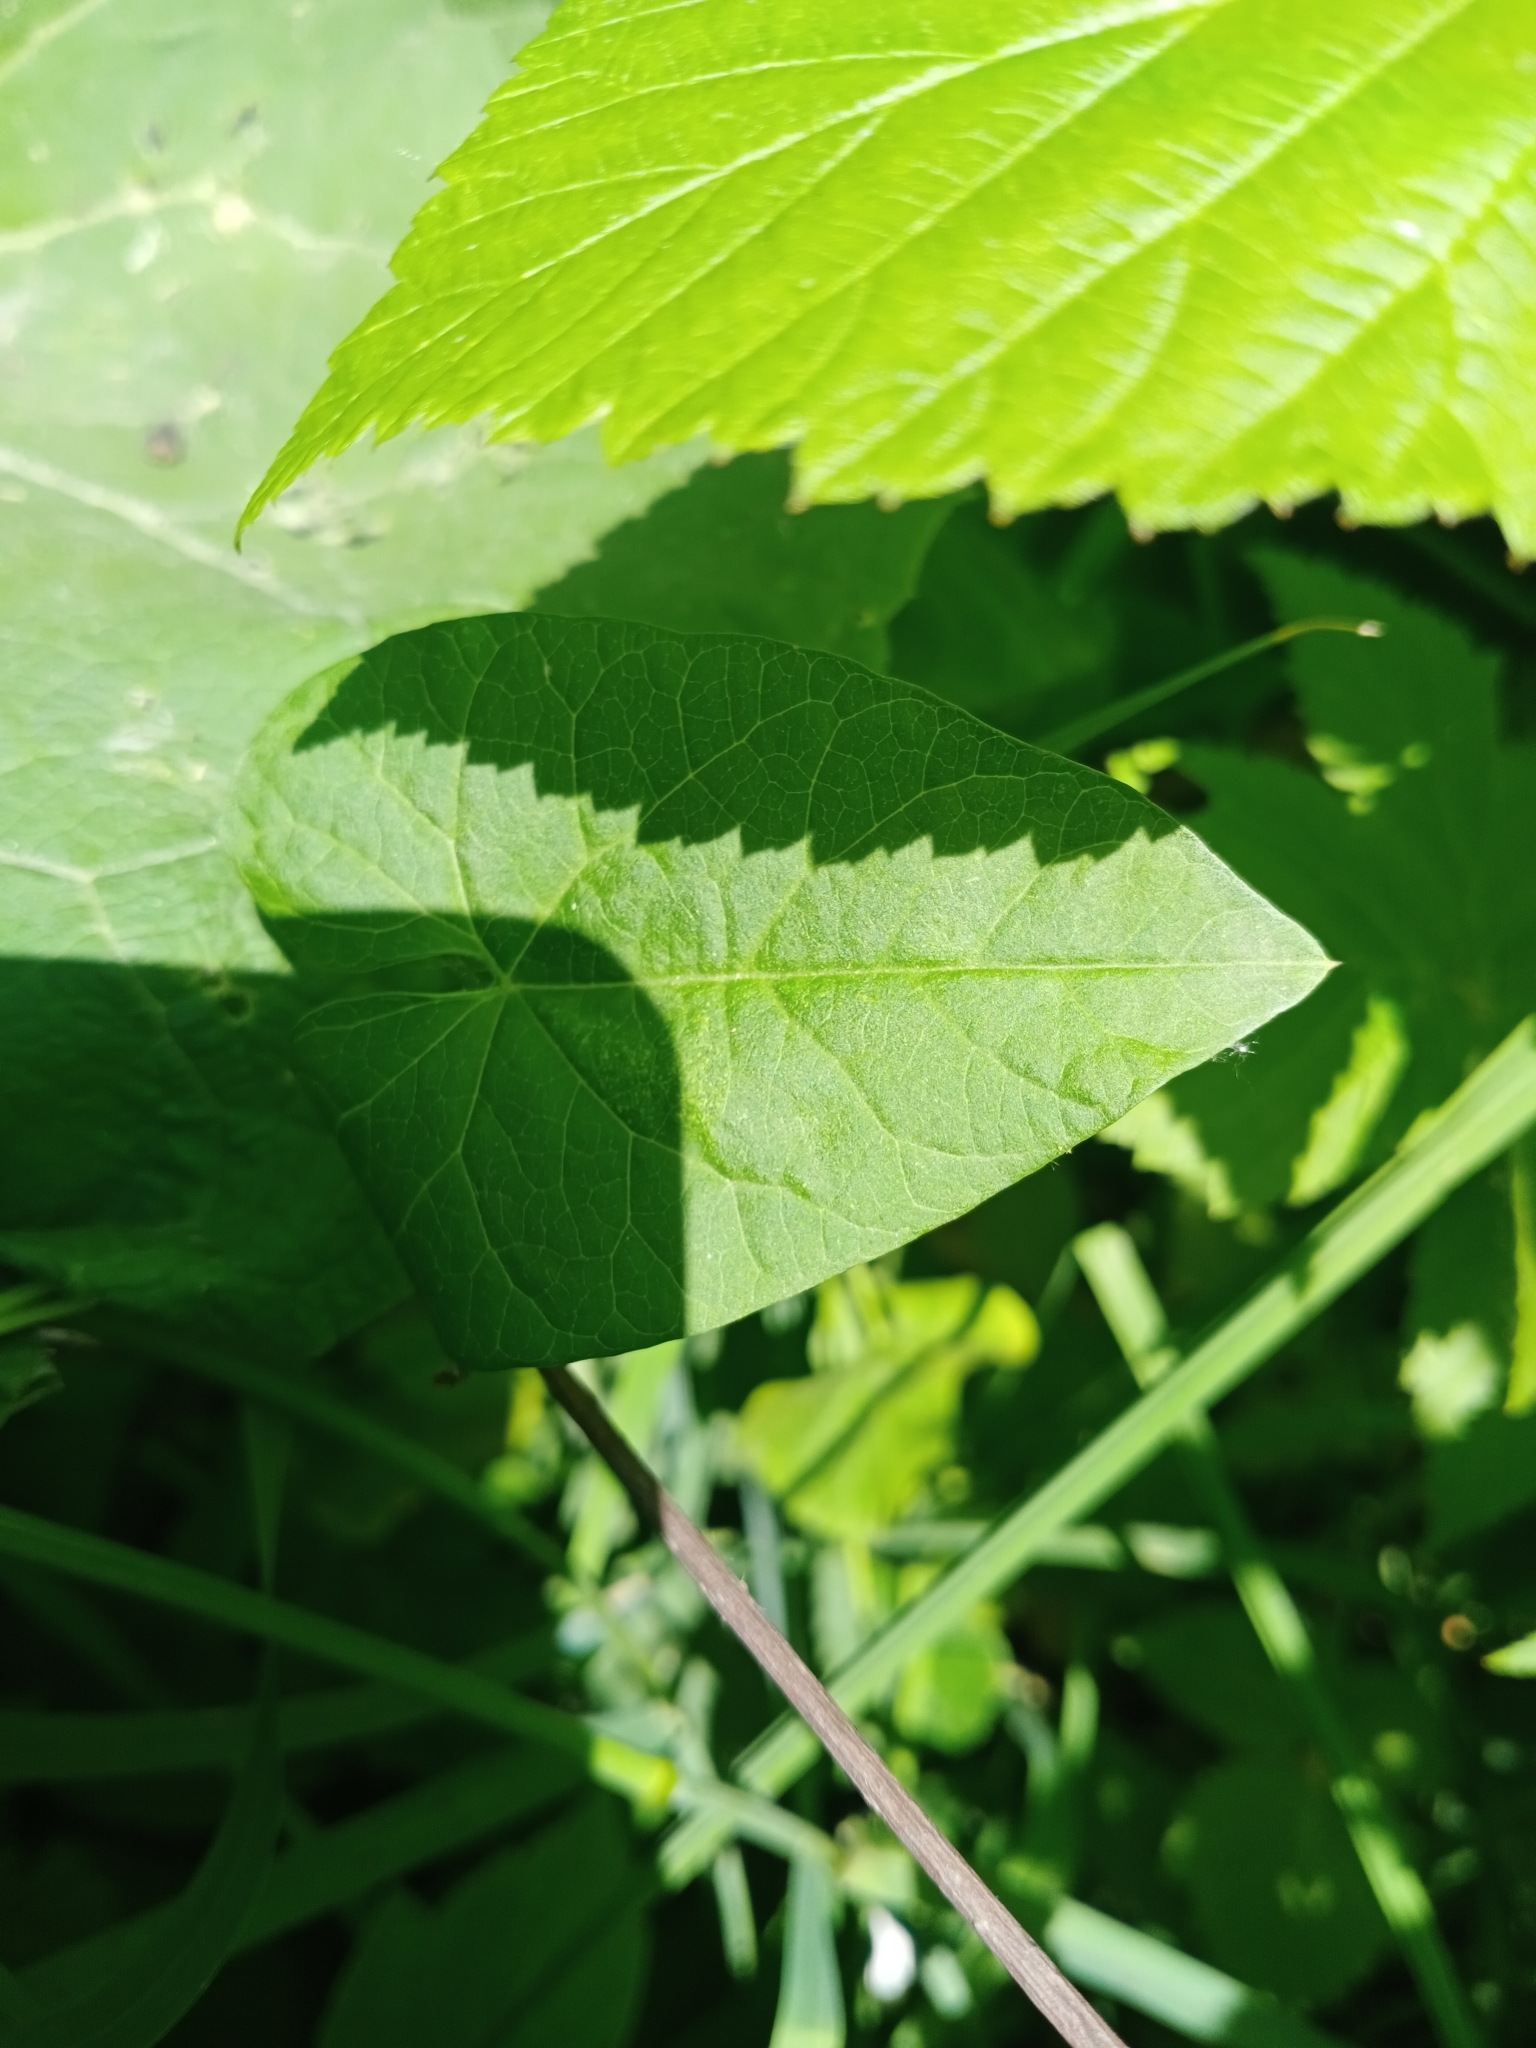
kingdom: Plantae
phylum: Tracheophyta
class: Magnoliopsida
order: Solanales
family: Convolvulaceae
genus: Calystegia
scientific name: Calystegia sepium
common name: Hedge bindweed
